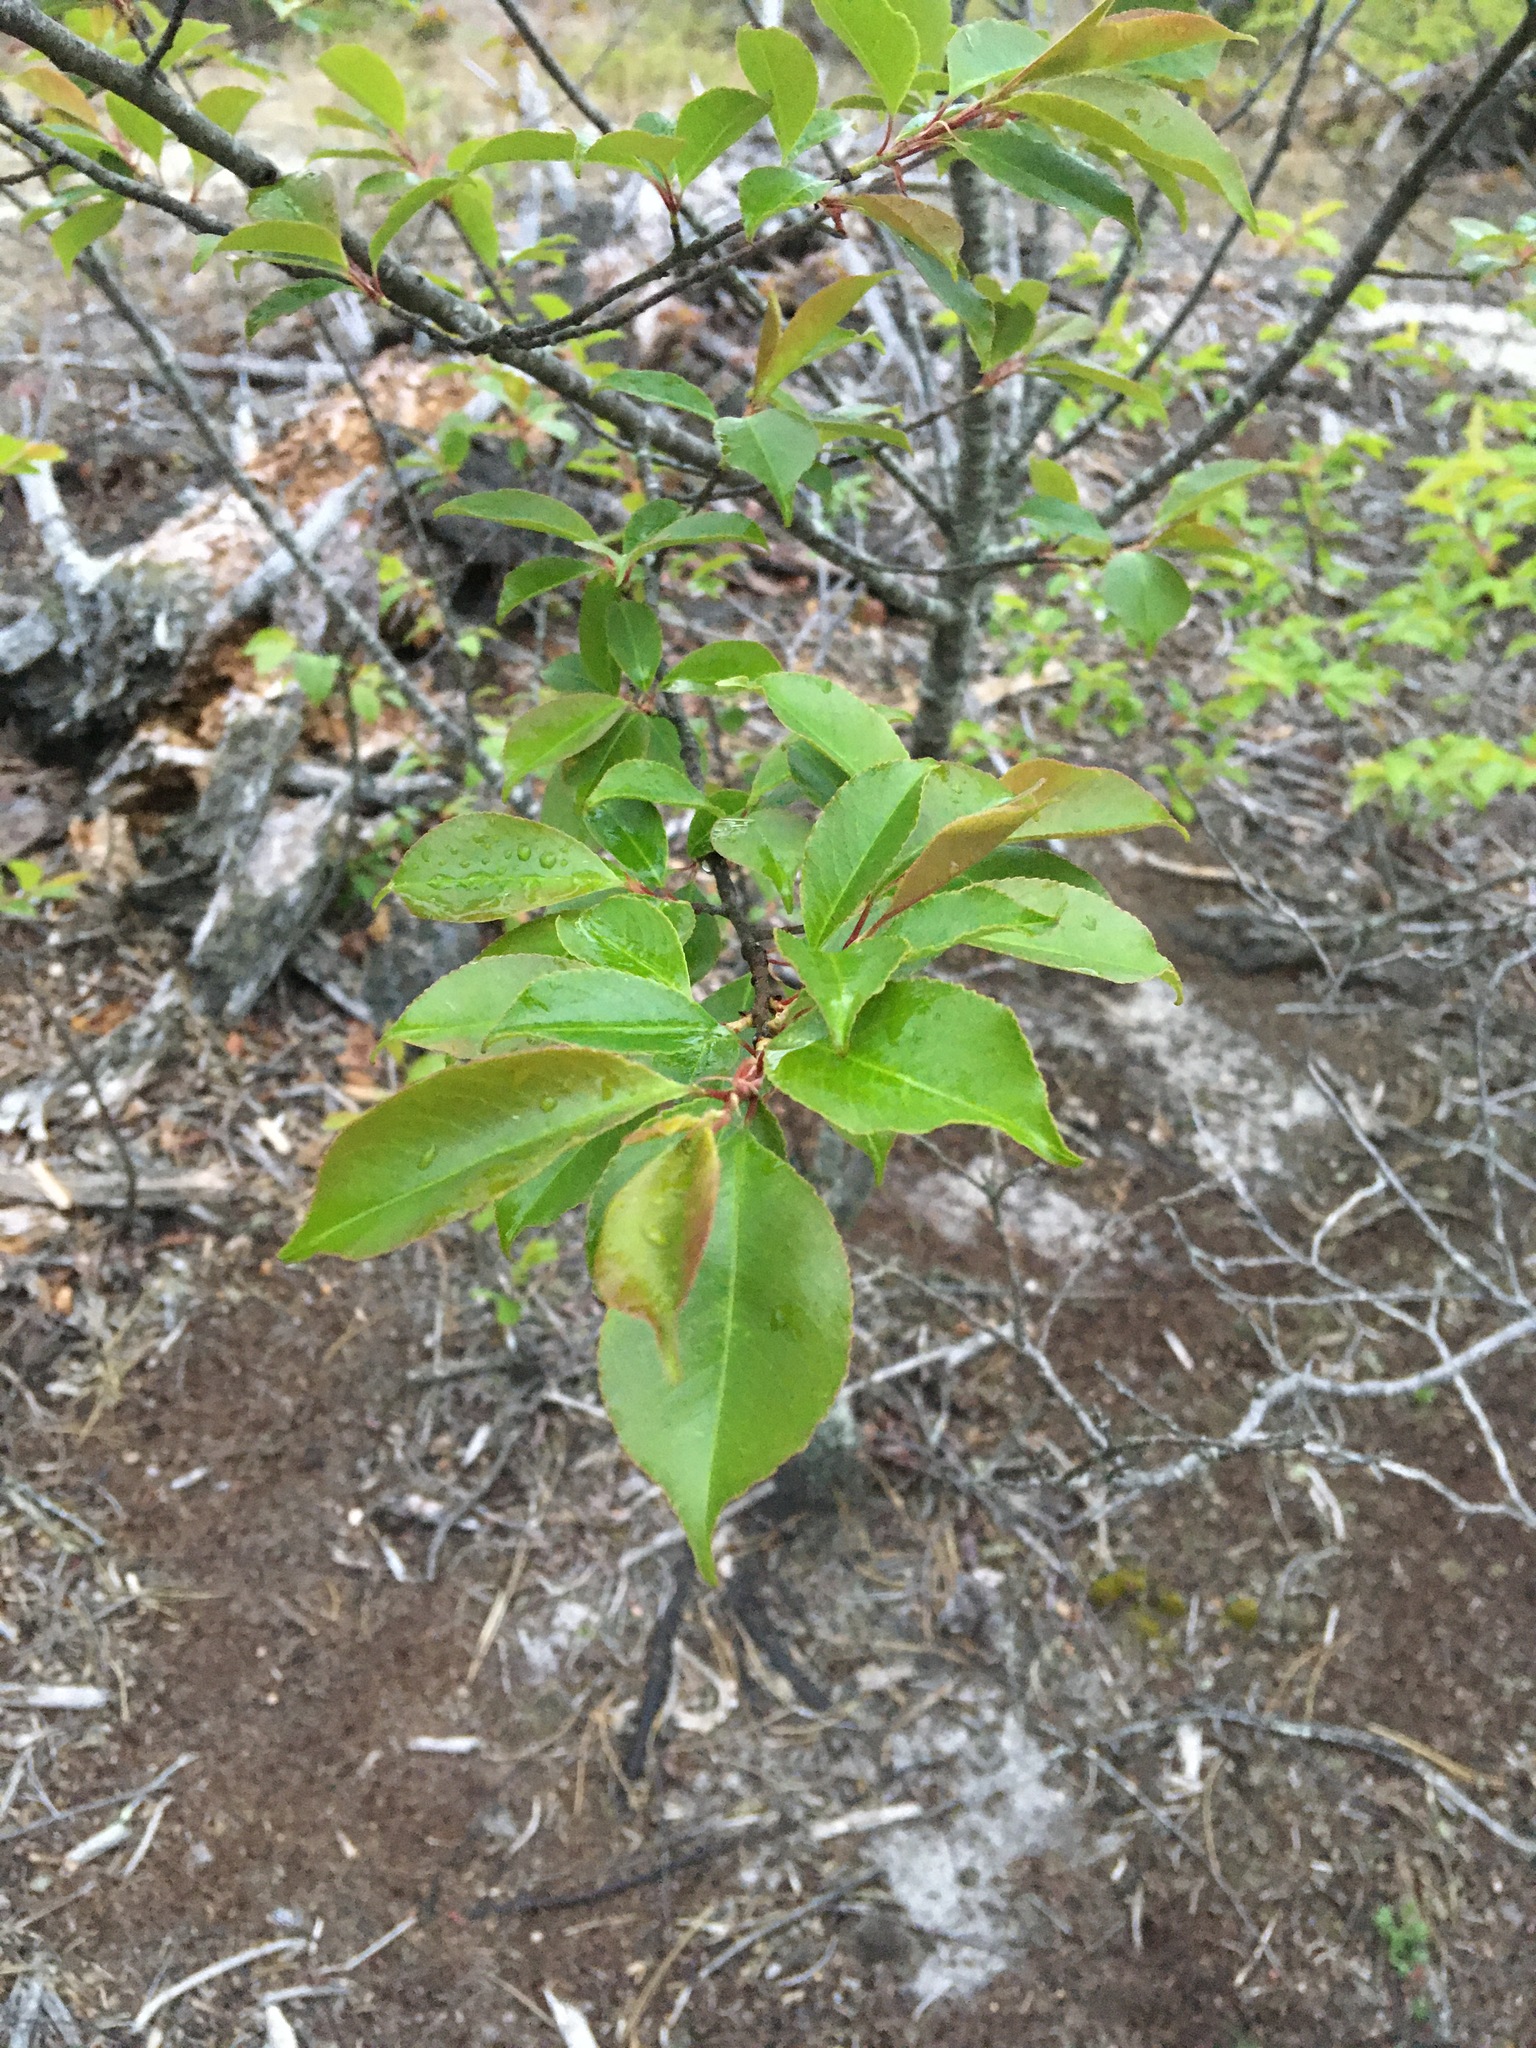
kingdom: Plantae
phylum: Tracheophyta
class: Magnoliopsida
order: Rosales
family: Rosaceae
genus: Prunus
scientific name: Prunus maritima
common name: Beach plum
